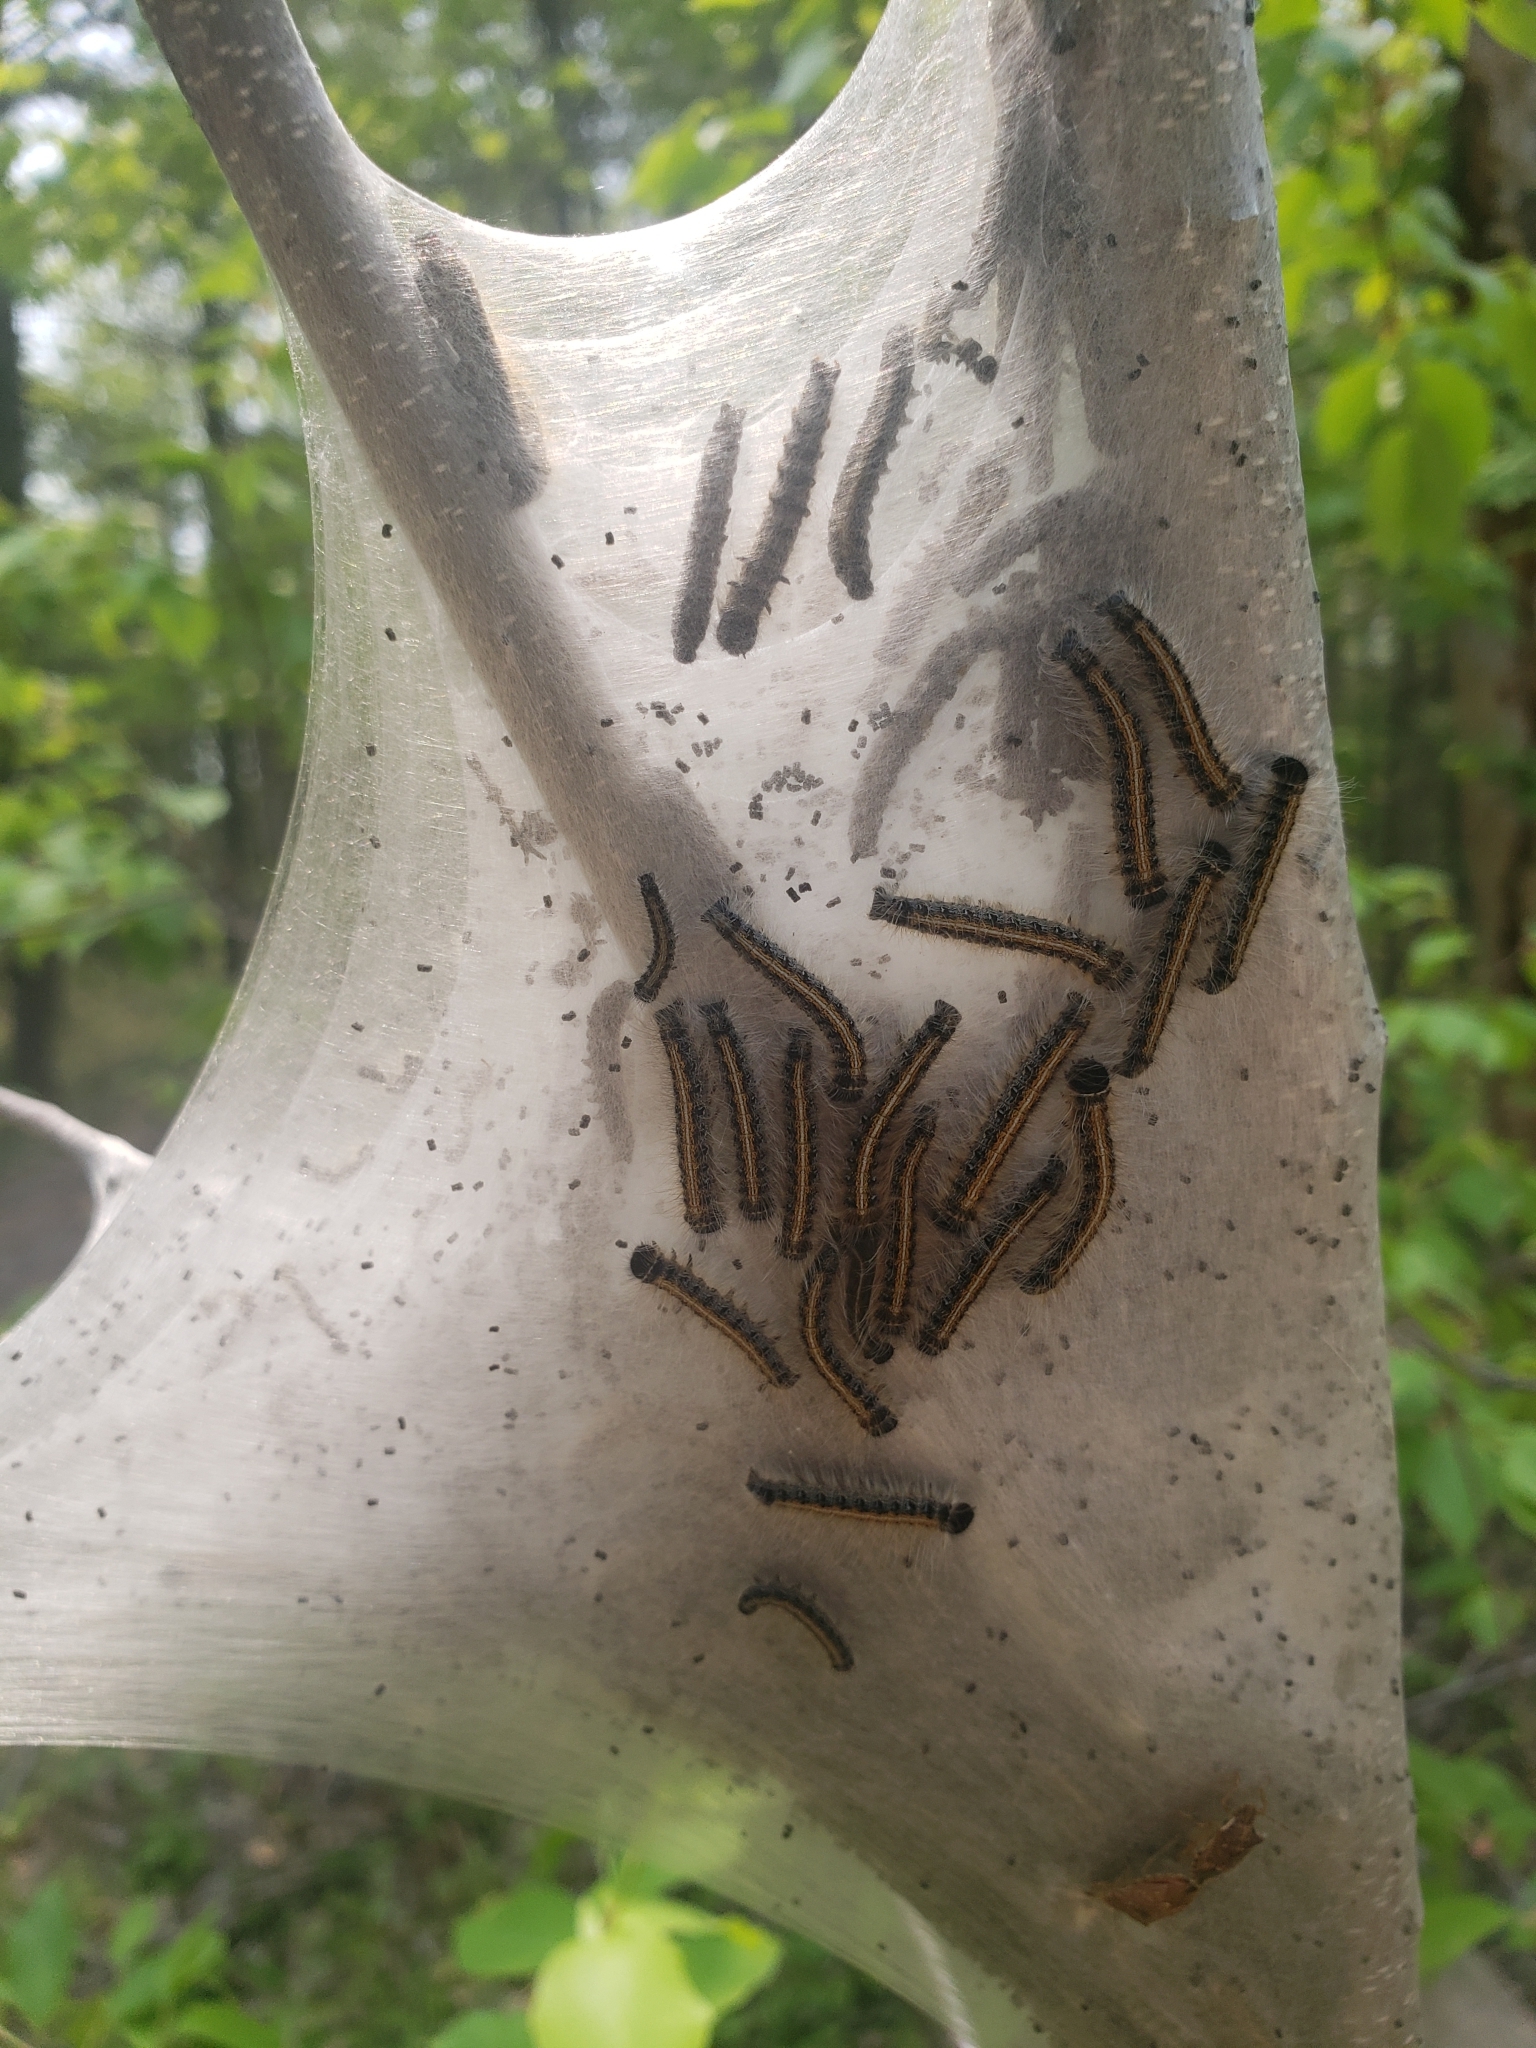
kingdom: Animalia
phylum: Arthropoda
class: Insecta
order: Lepidoptera
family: Lasiocampidae
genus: Malacosoma
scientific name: Malacosoma americana
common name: Eastern tent caterpillar moth
